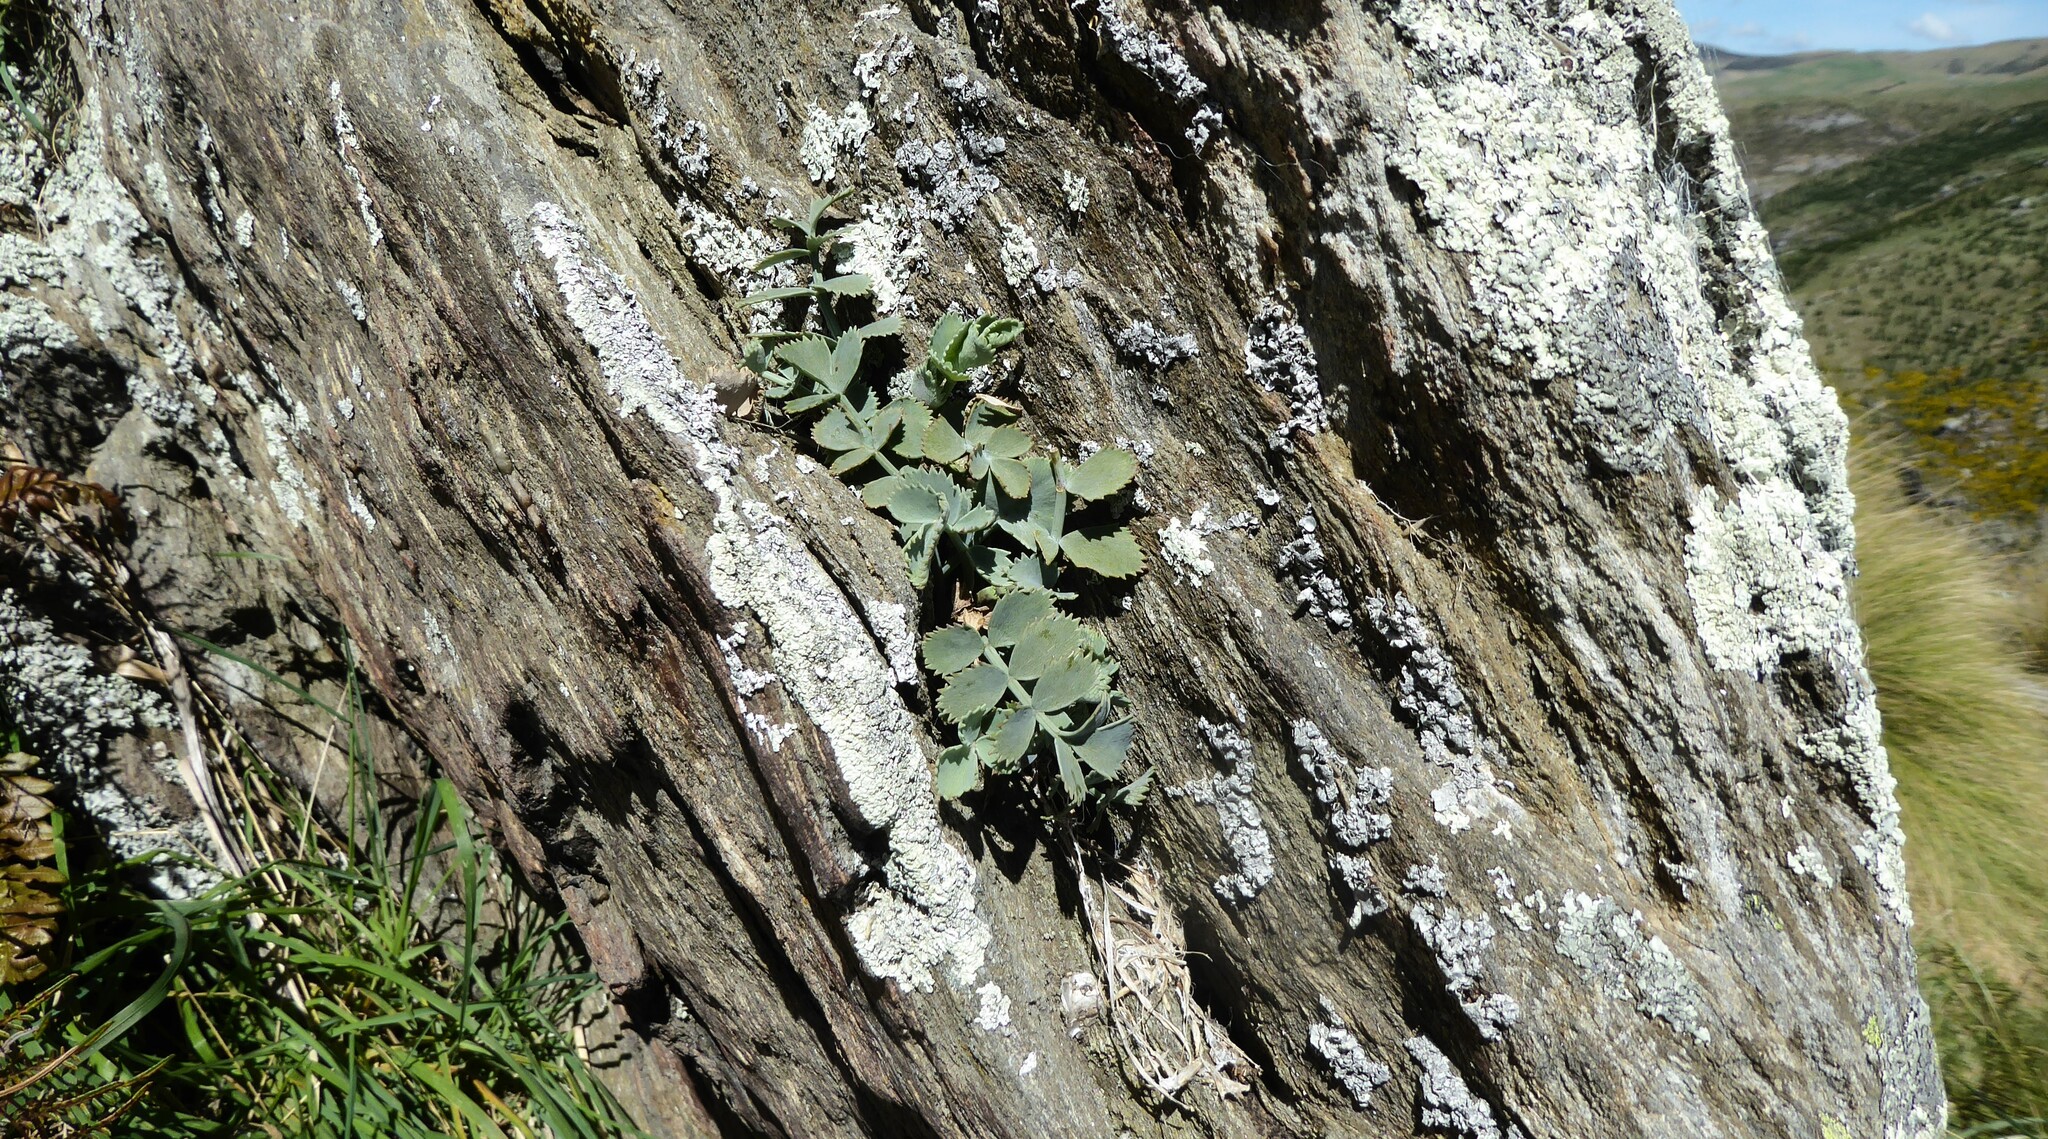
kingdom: Plantae
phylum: Tracheophyta
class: Magnoliopsida
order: Apiales
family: Apiaceae
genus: Gingidia
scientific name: Gingidia grisea
